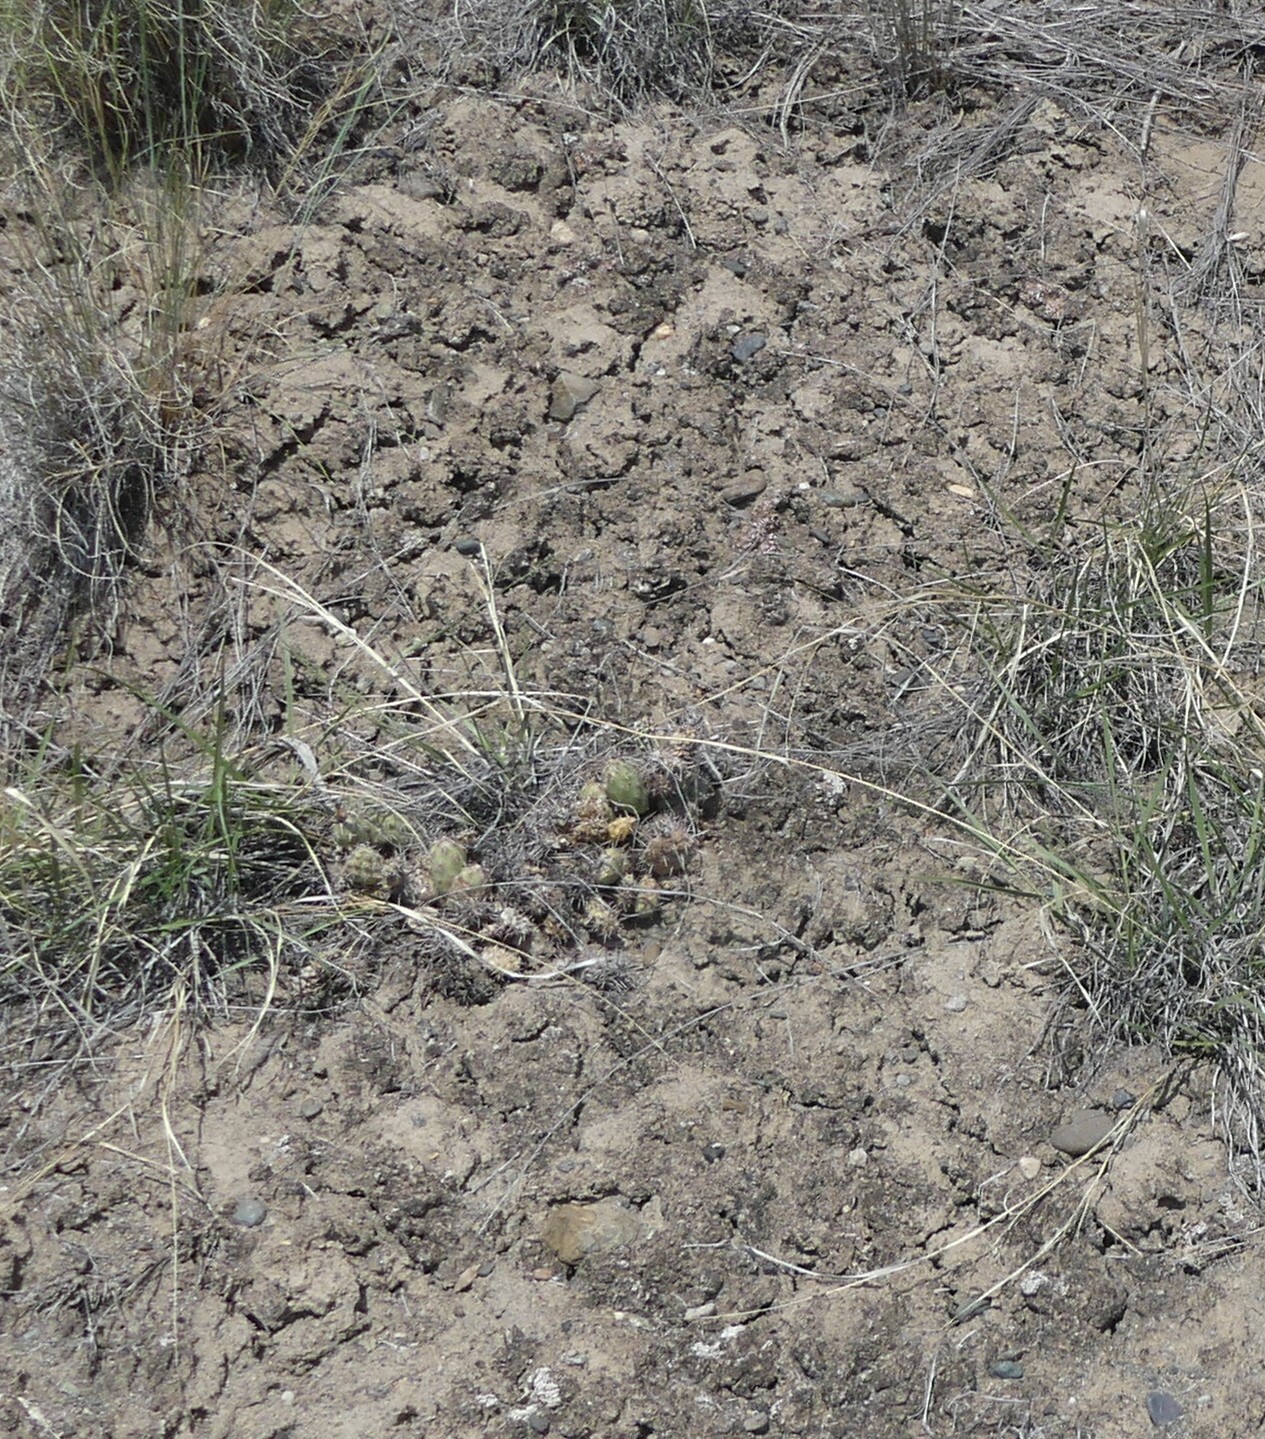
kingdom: Plantae
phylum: Tracheophyta
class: Magnoliopsida
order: Caryophyllales
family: Cactaceae
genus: Opuntia
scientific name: Opuntia fragilis
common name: Brittle cactus
